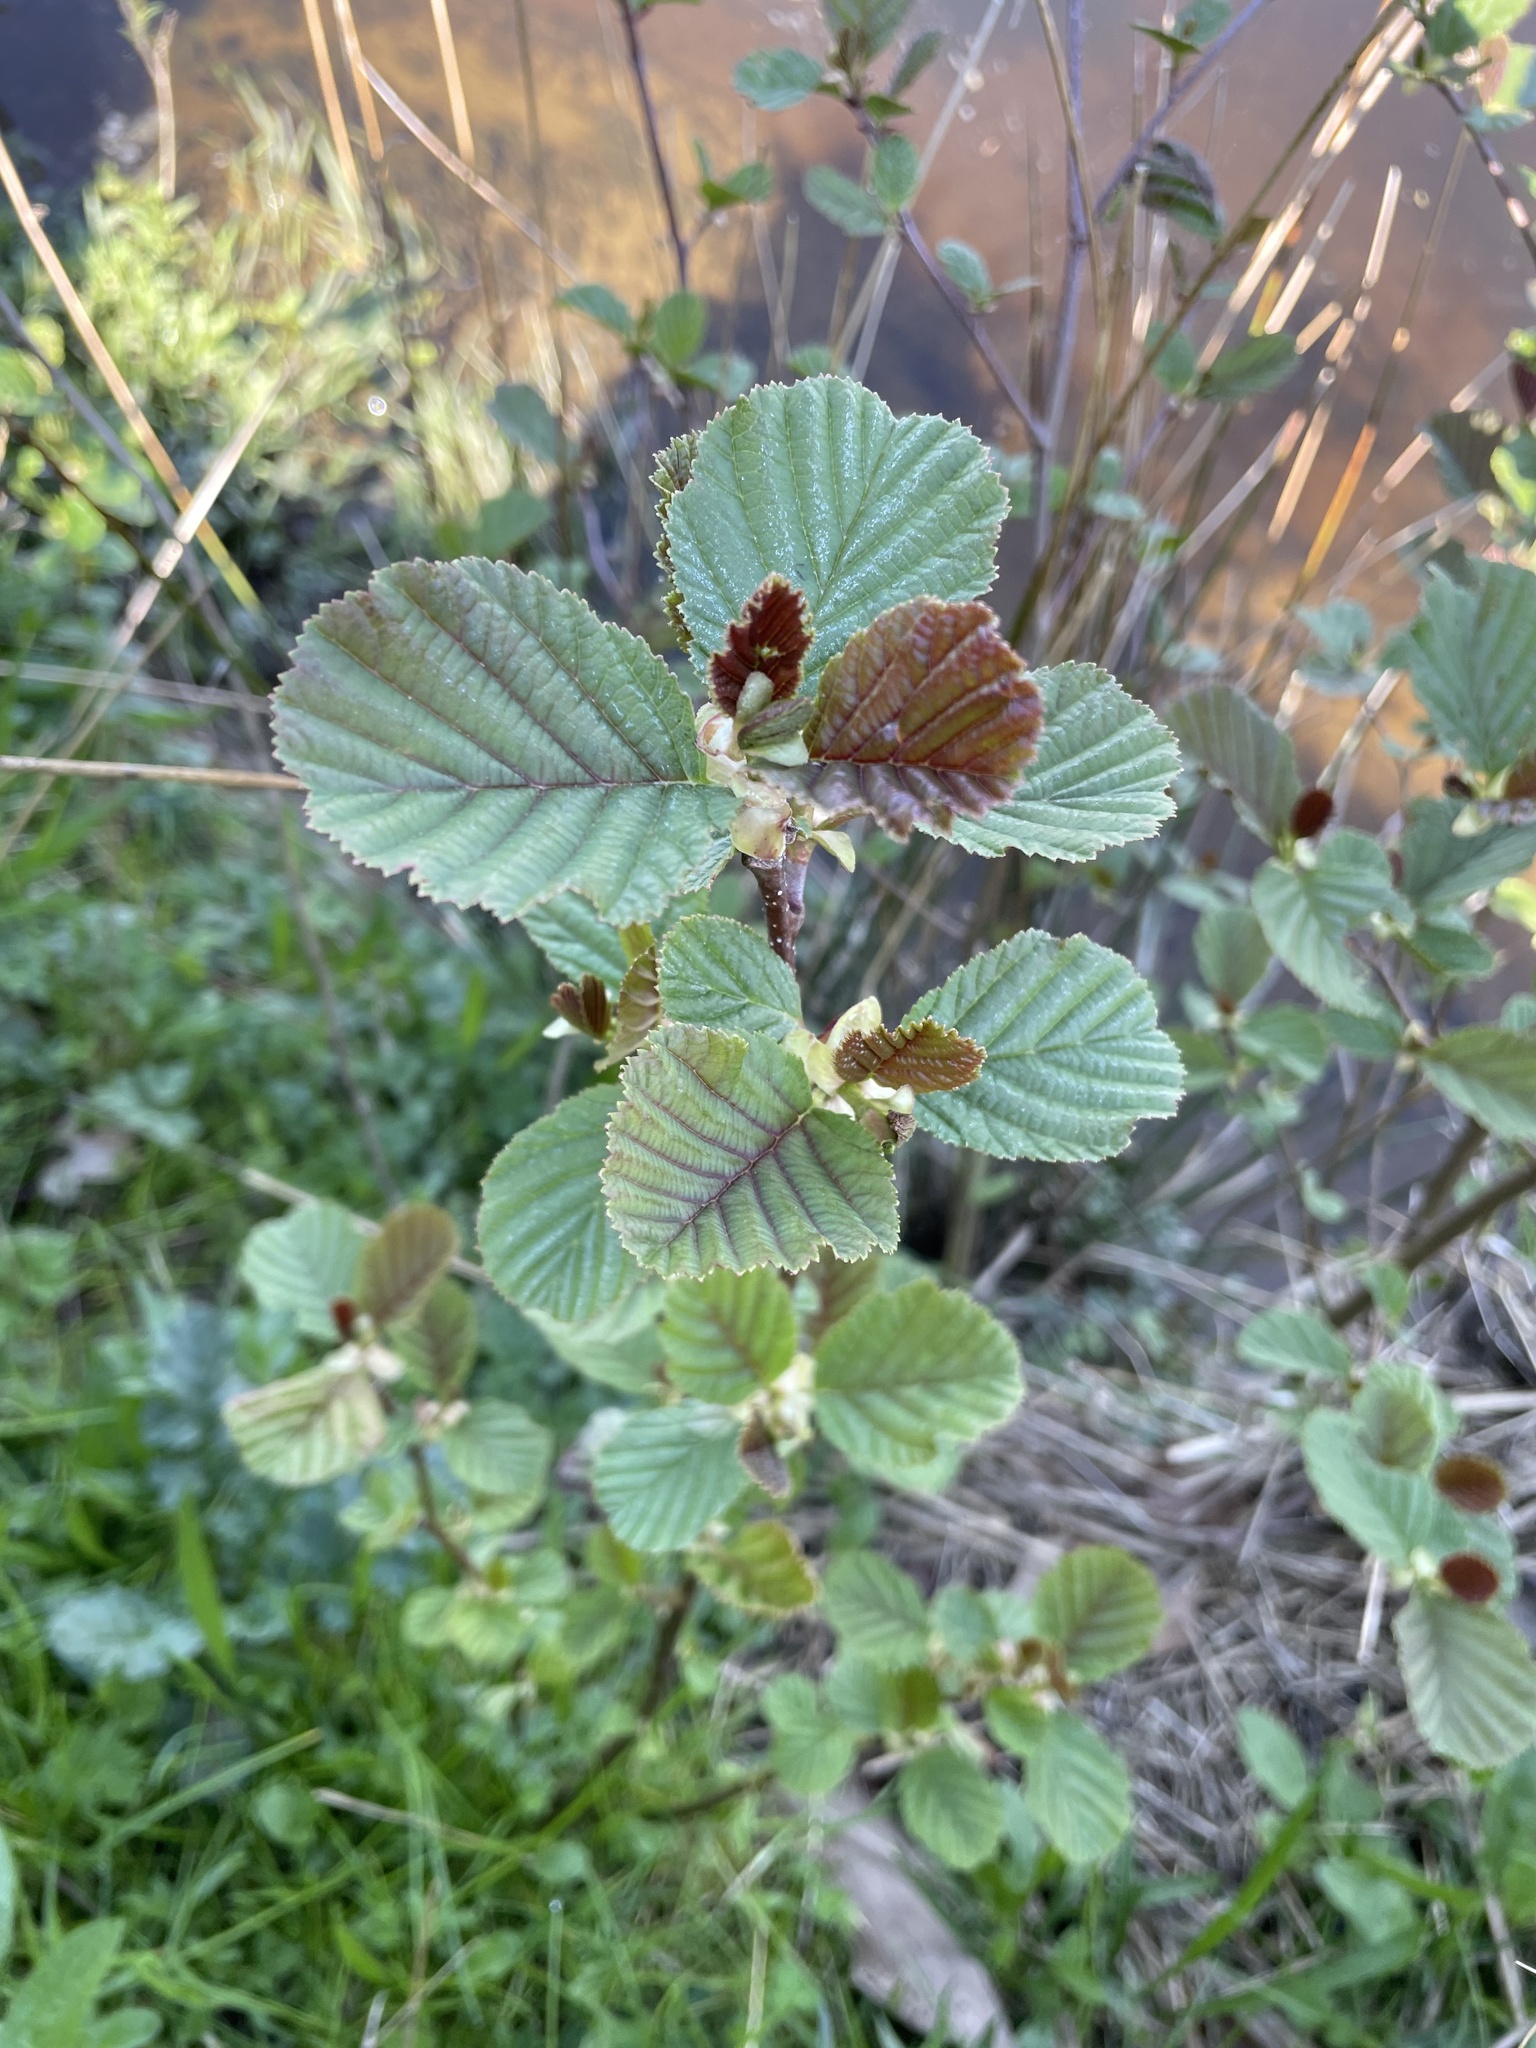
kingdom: Plantae
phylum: Tracheophyta
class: Magnoliopsida
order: Fagales
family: Betulaceae
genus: Alnus
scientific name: Alnus glutinosa
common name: Black alder
